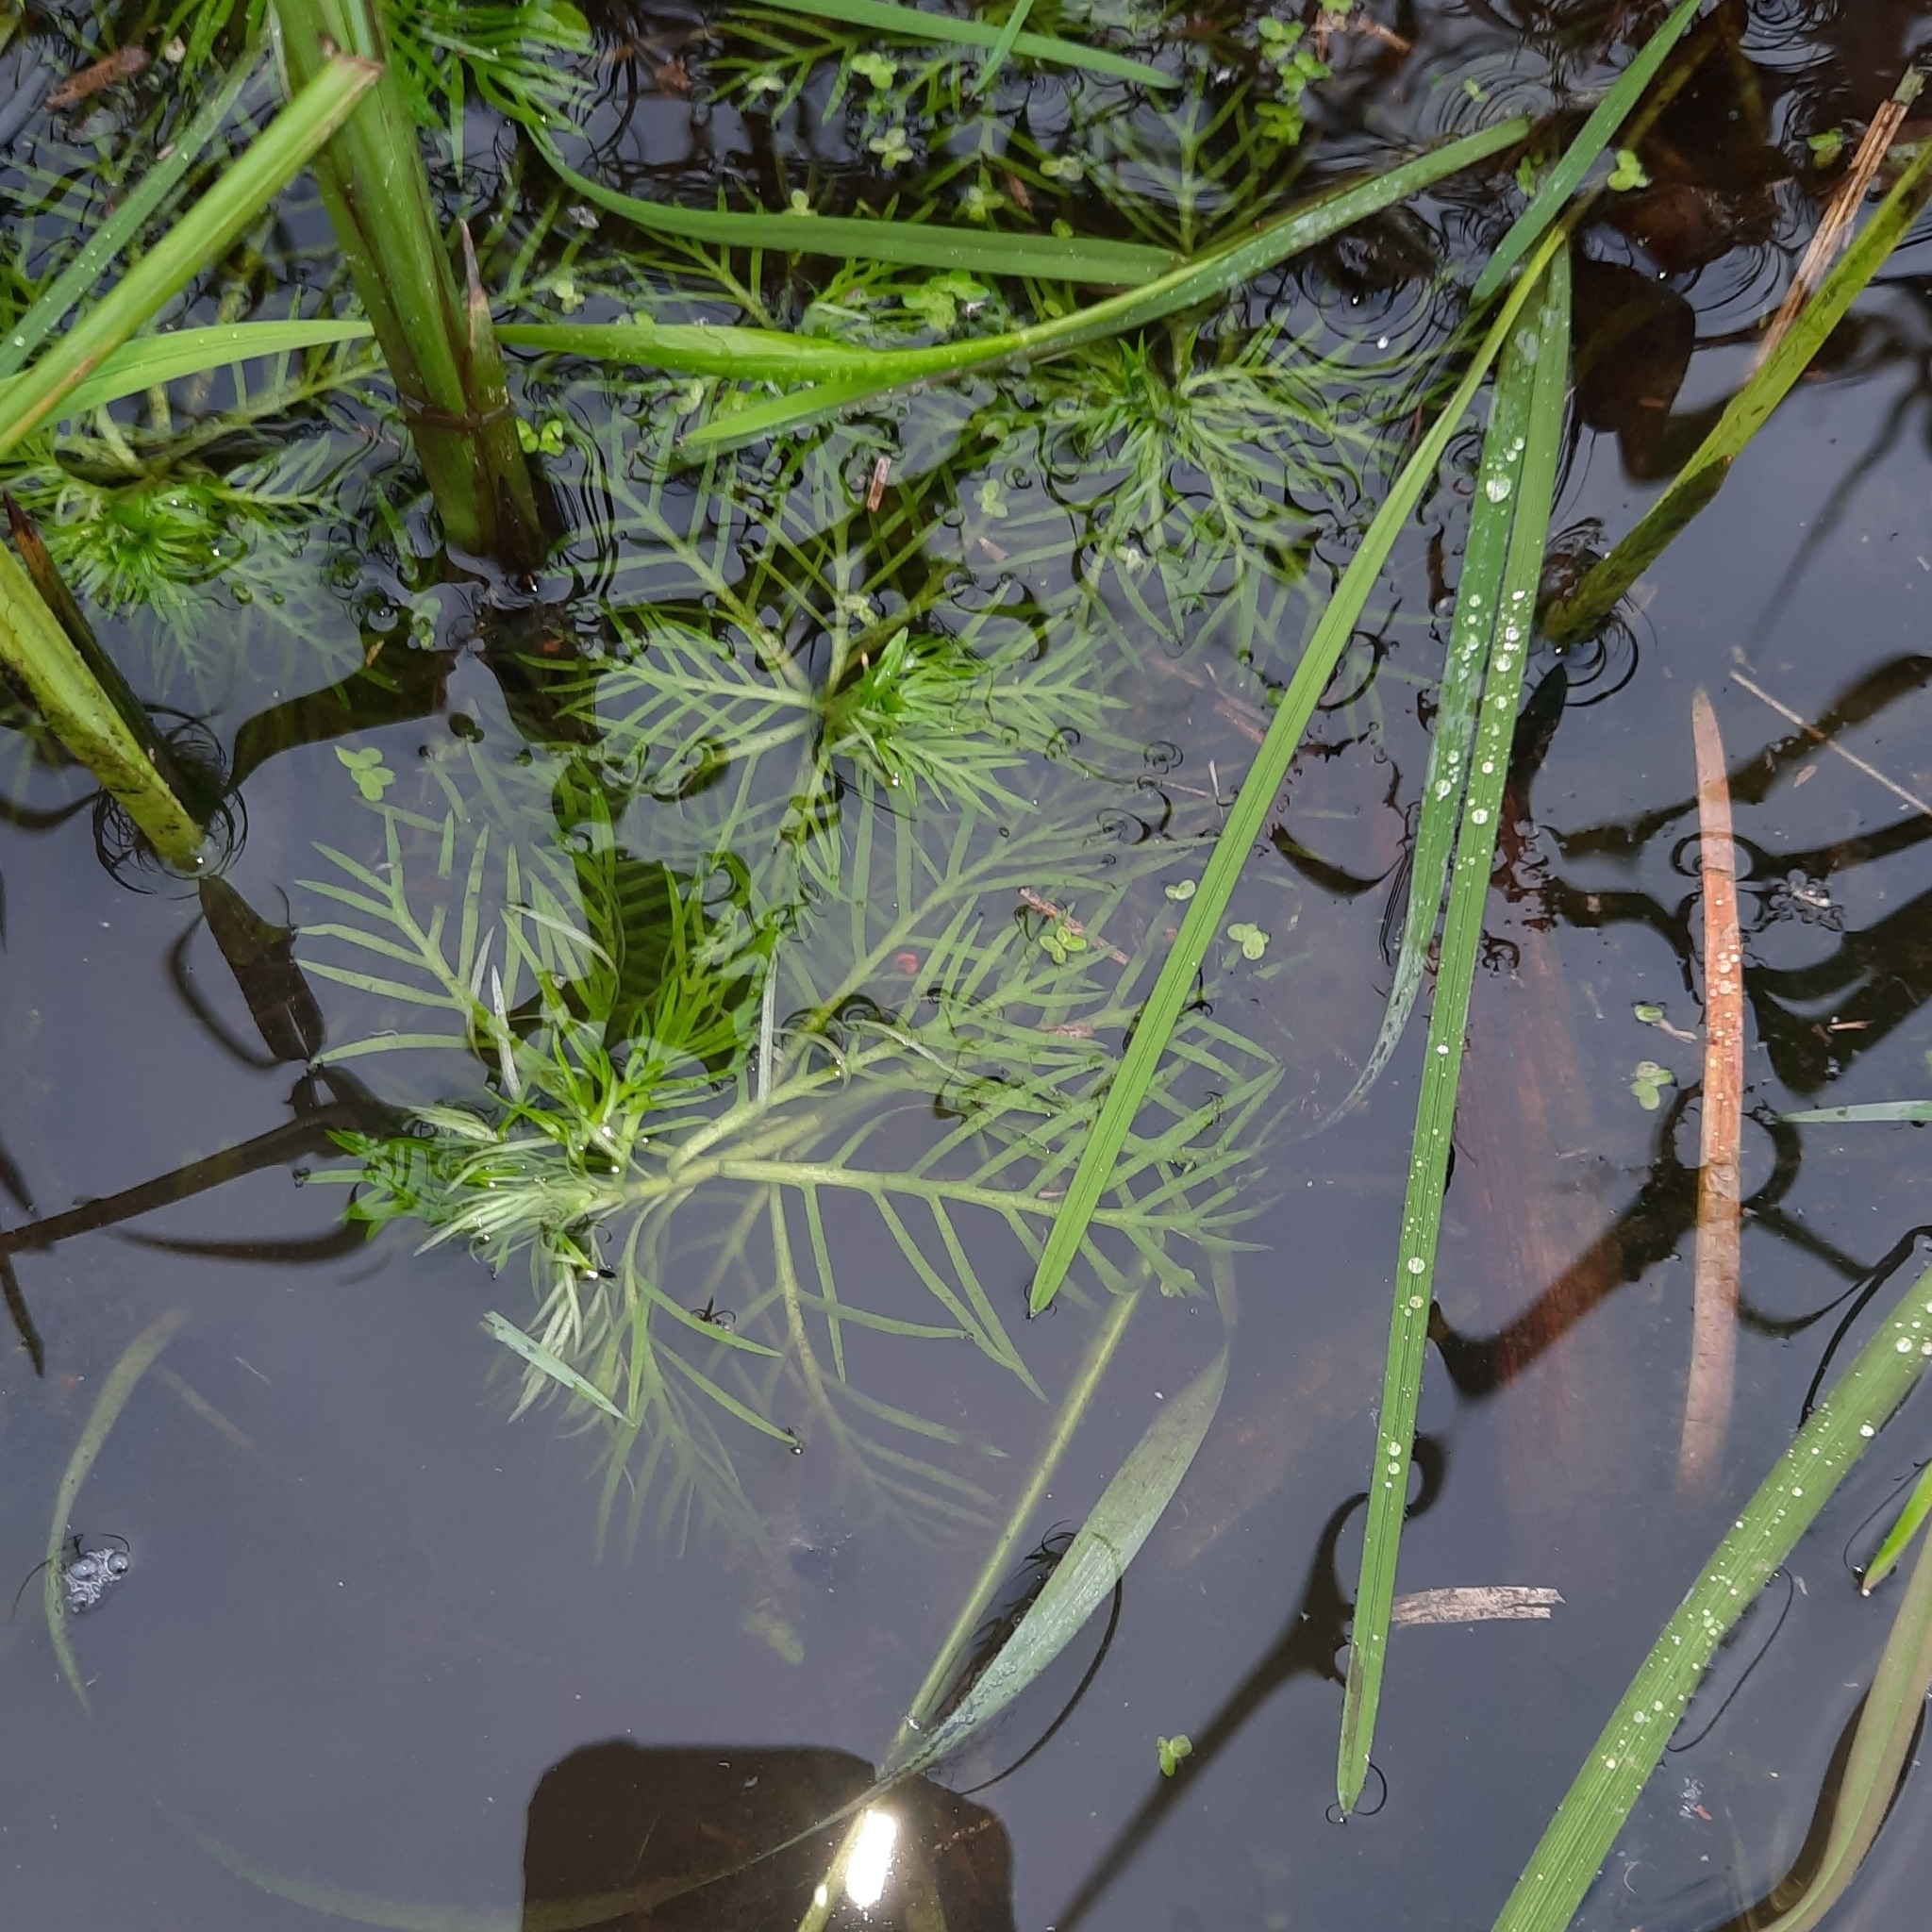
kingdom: Plantae
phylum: Tracheophyta
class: Magnoliopsida
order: Ericales
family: Primulaceae
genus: Hottonia
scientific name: Hottonia palustris
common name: Water-violet
